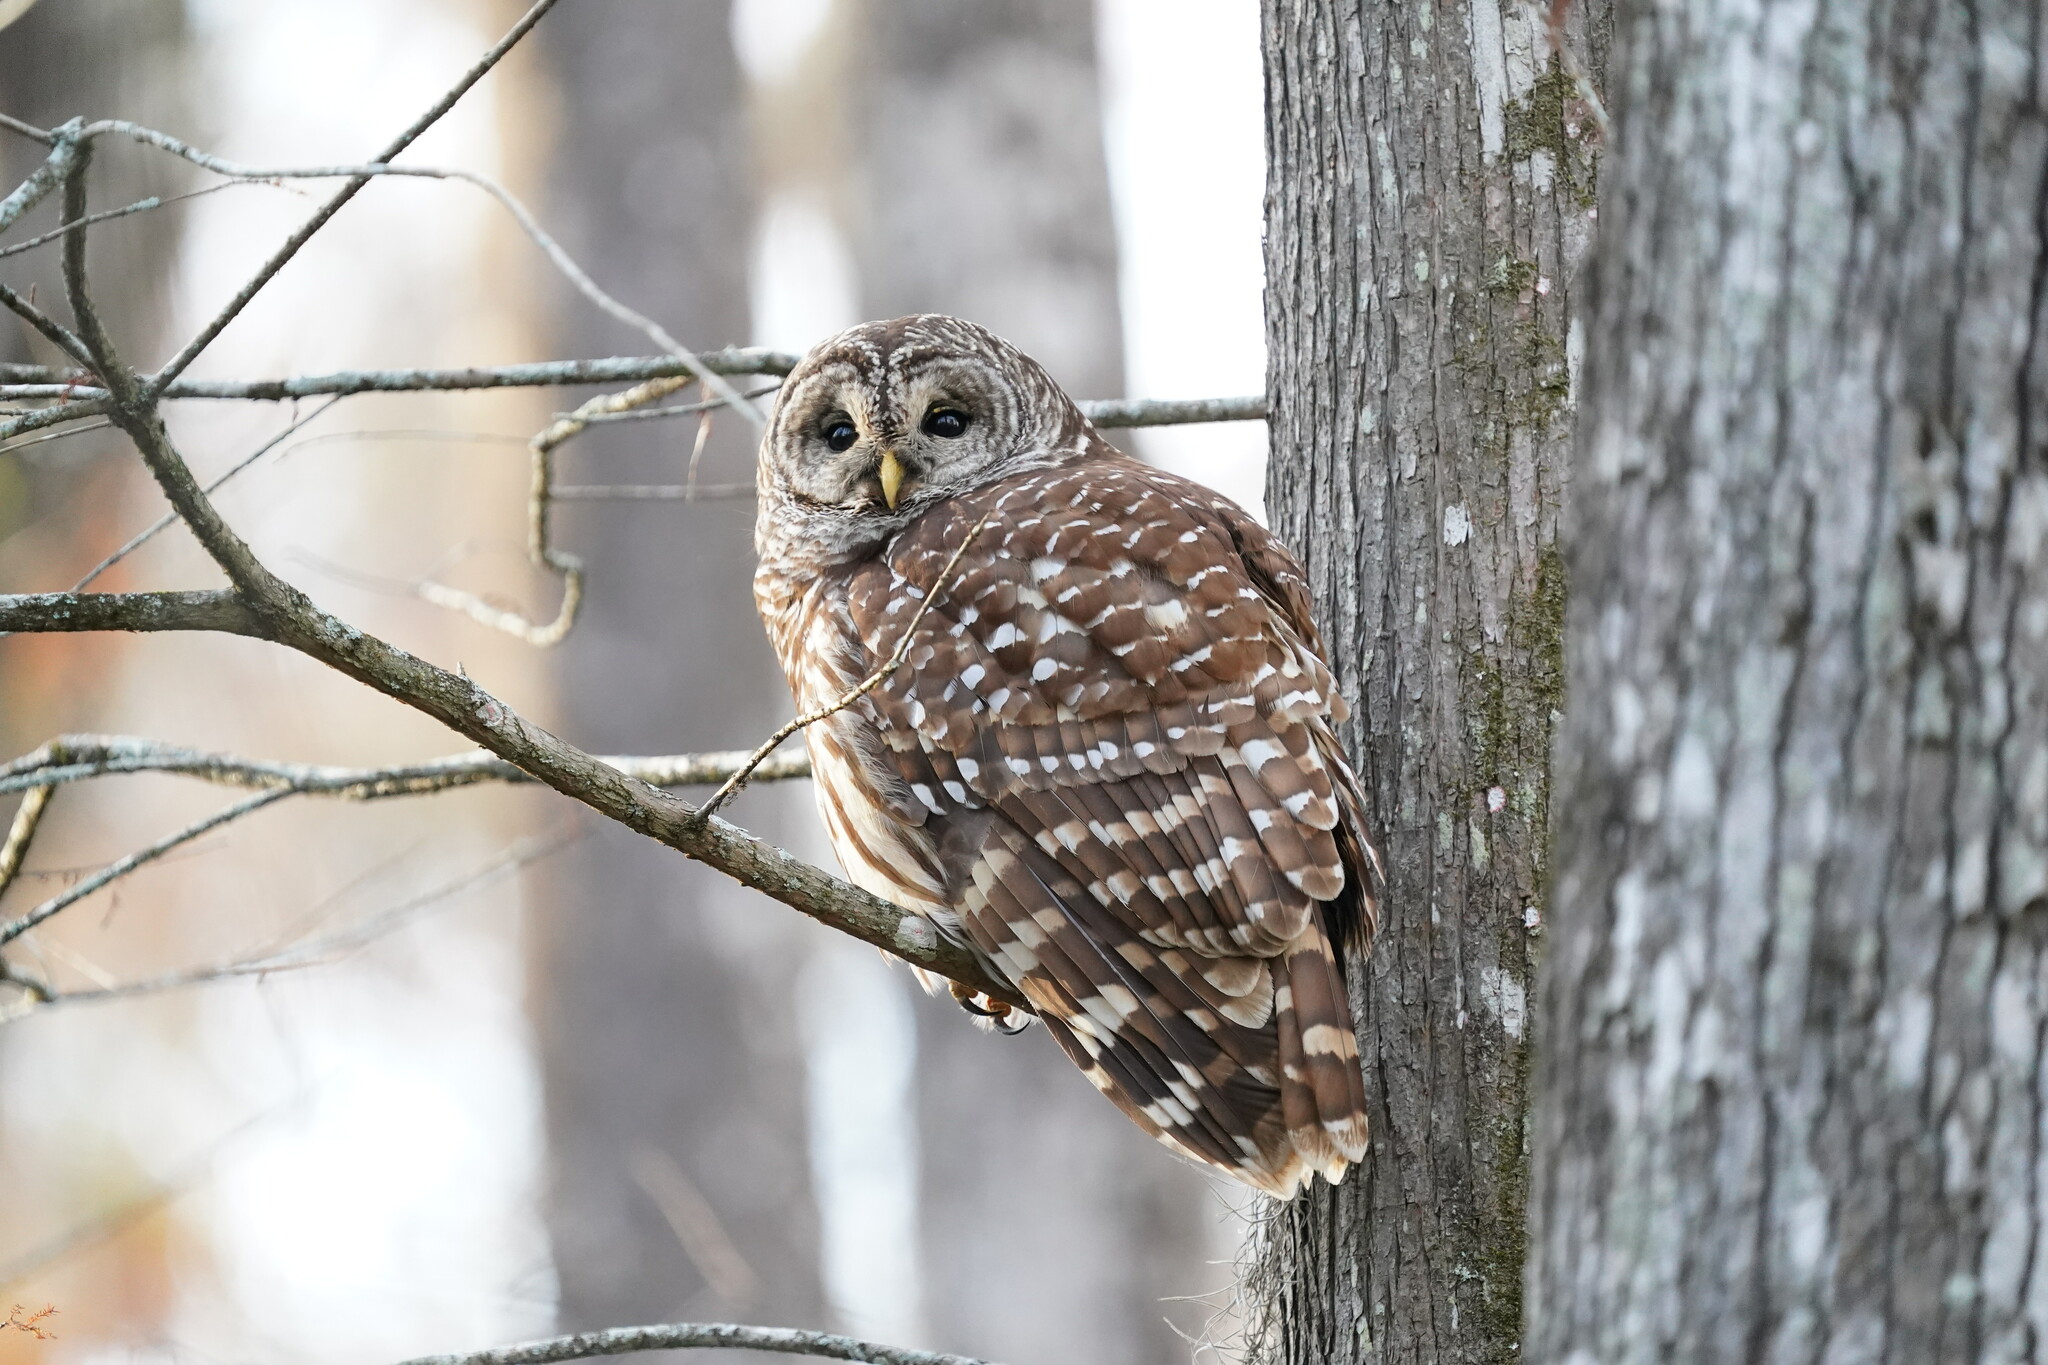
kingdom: Animalia
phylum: Chordata
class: Aves
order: Strigiformes
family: Strigidae
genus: Strix
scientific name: Strix varia
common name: Barred owl
